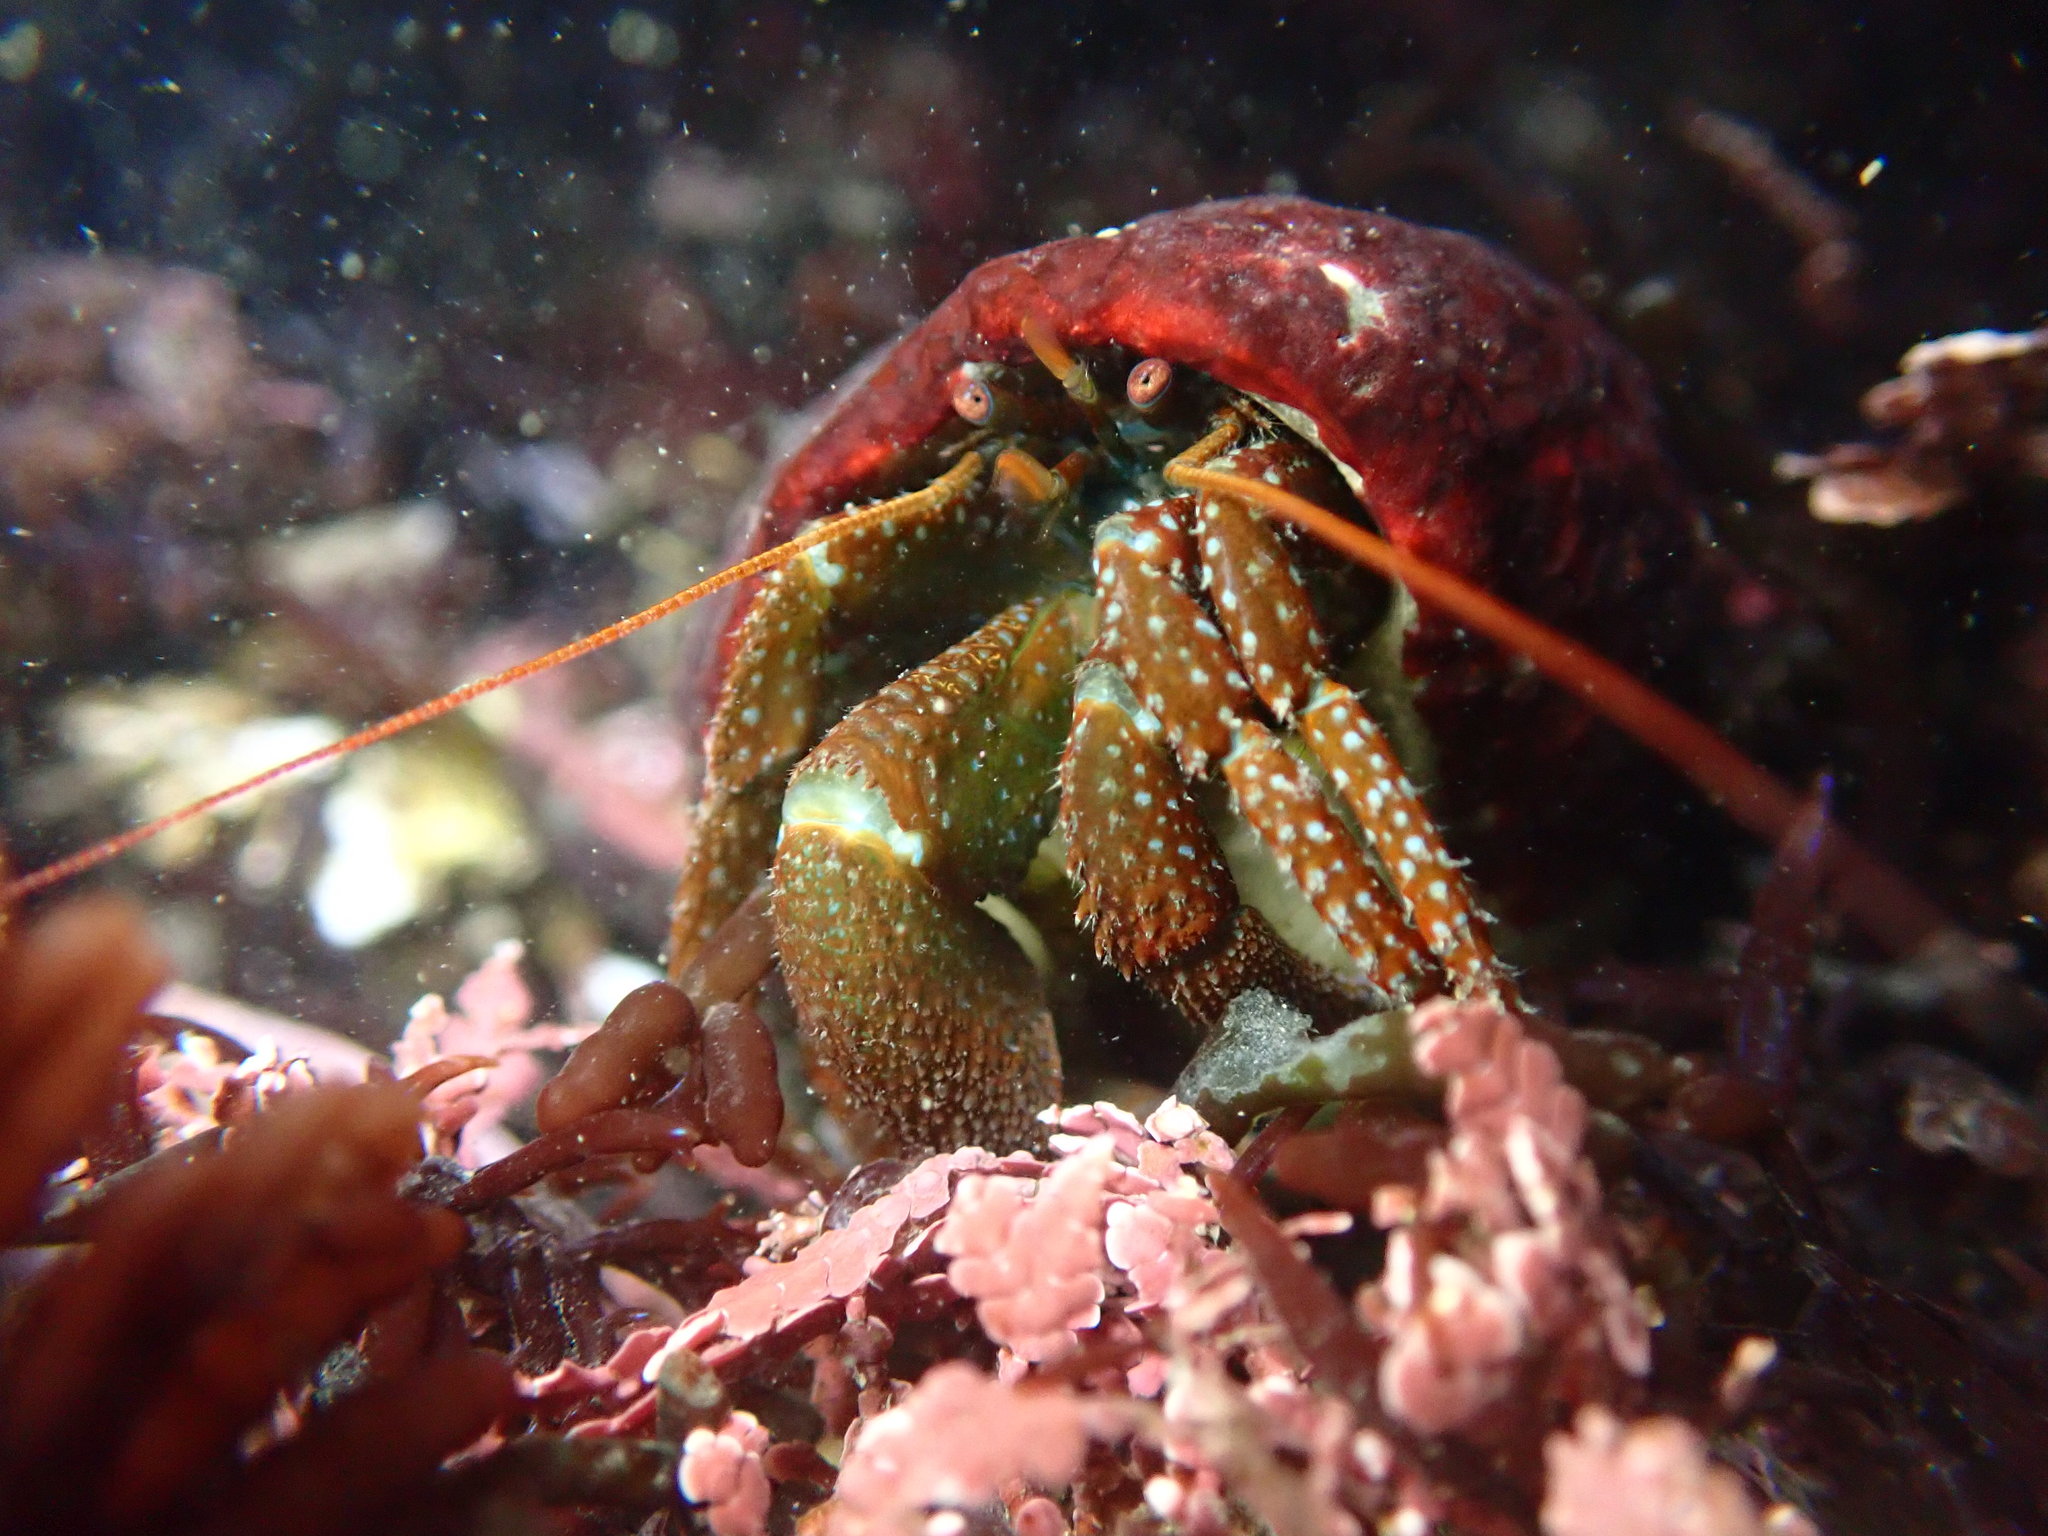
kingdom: Animalia
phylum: Arthropoda
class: Malacostraca
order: Decapoda
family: Paguridae
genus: Pagurus
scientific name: Pagurus granosimanus
